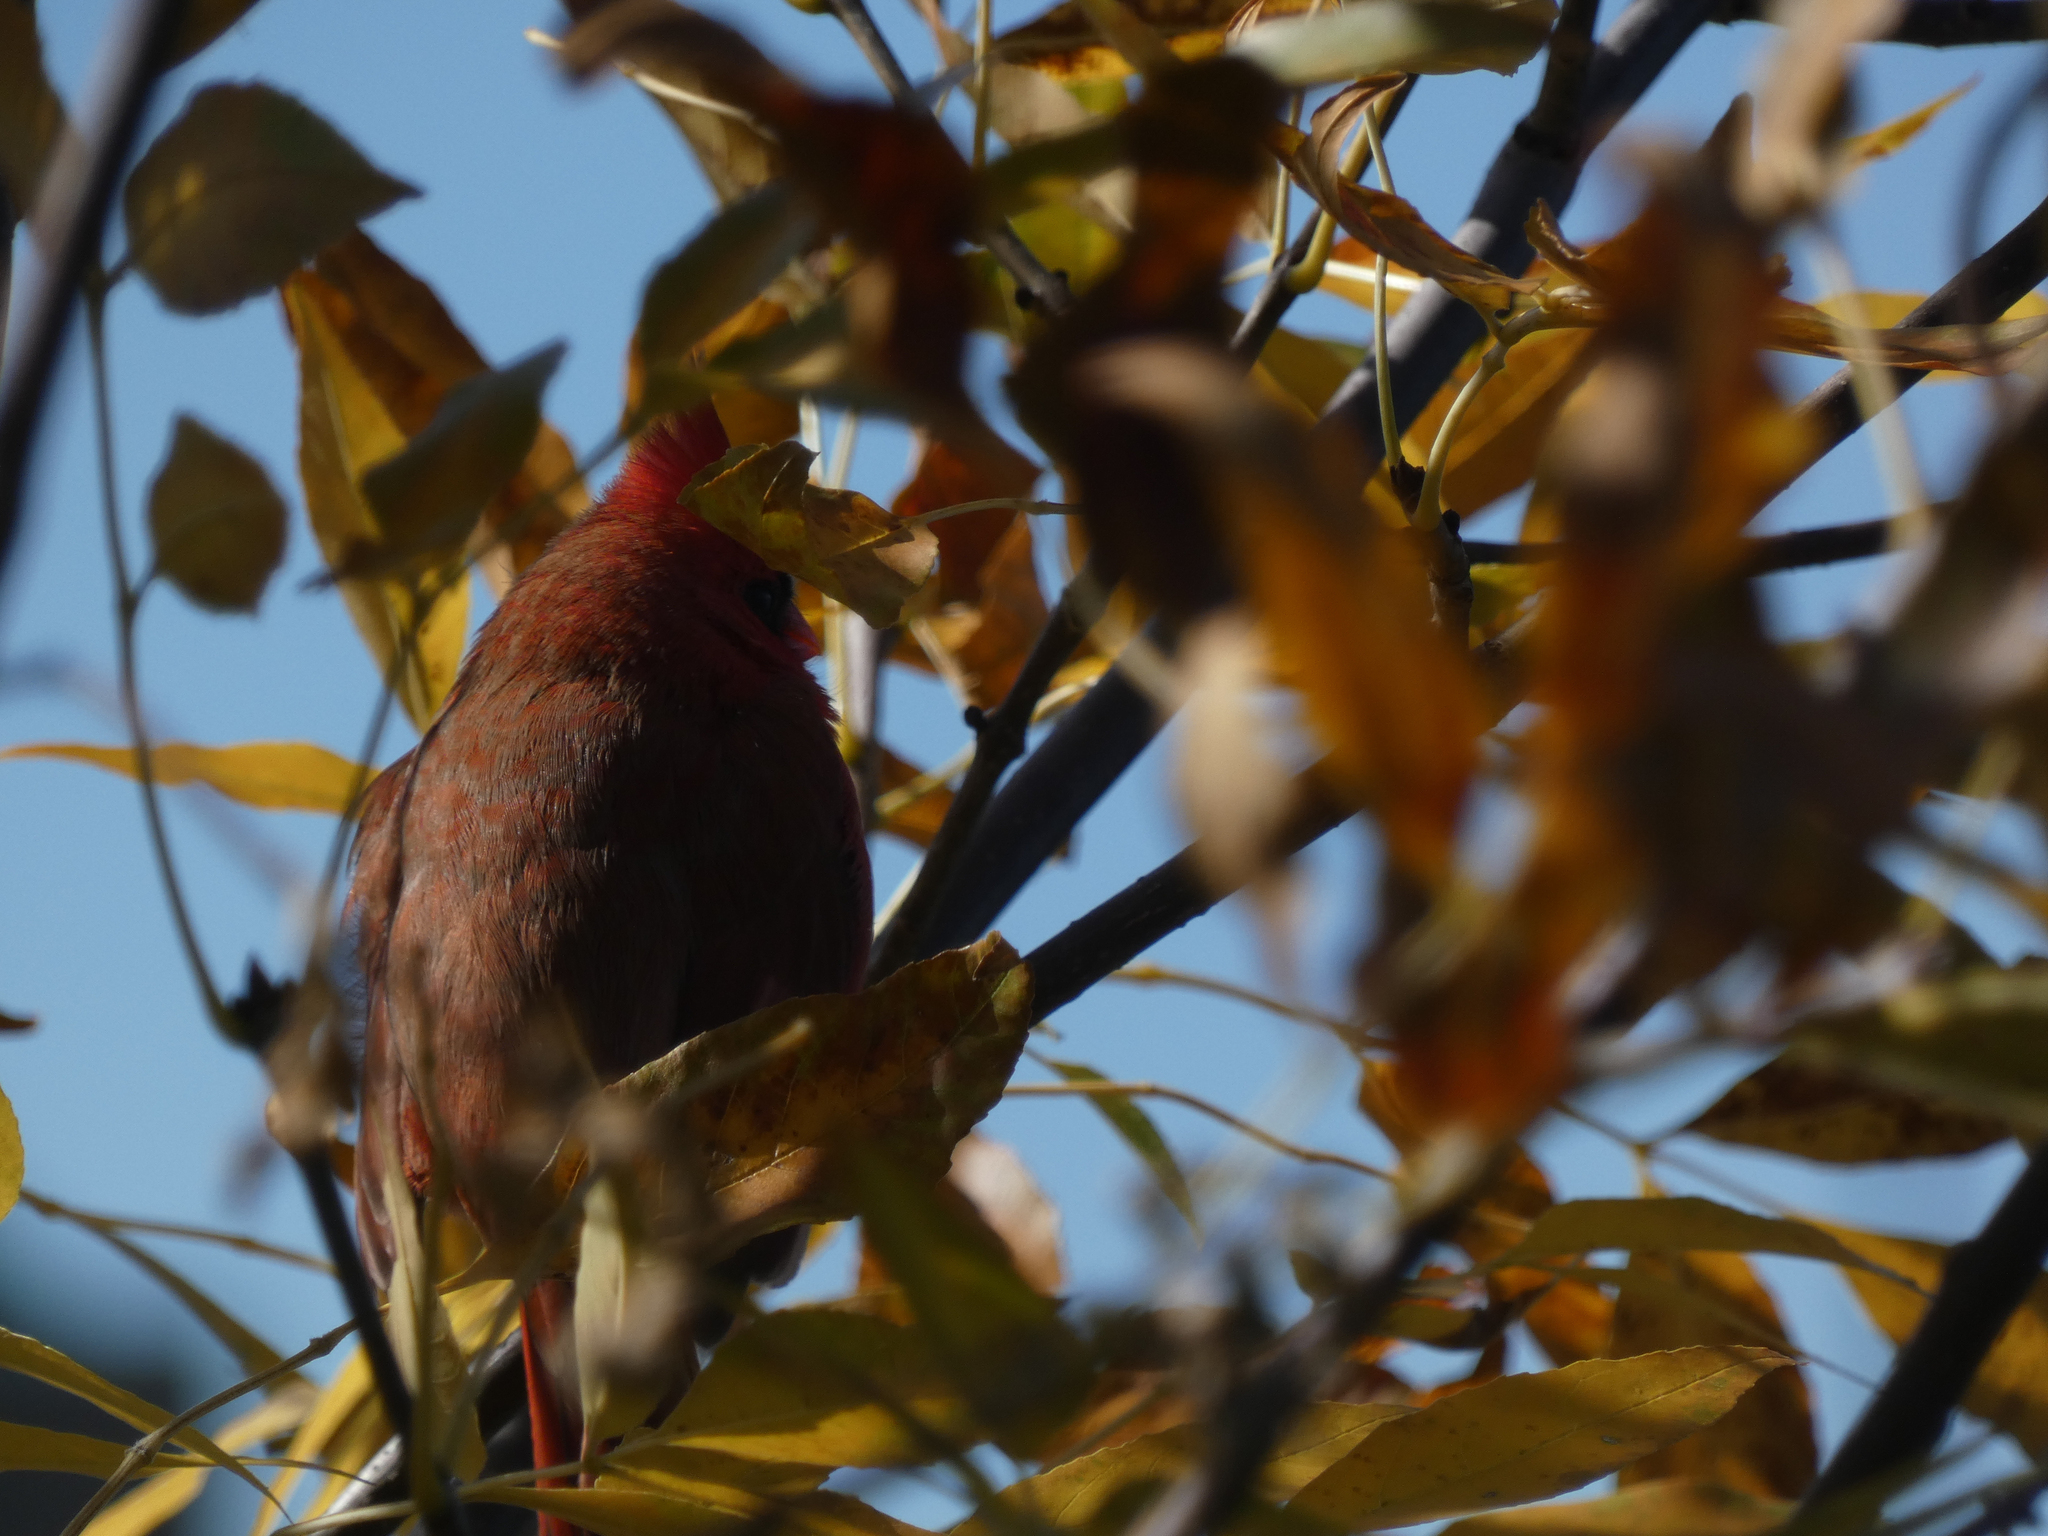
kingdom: Animalia
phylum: Chordata
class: Aves
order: Passeriformes
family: Cardinalidae
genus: Cardinalis
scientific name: Cardinalis cardinalis
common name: Northern cardinal
